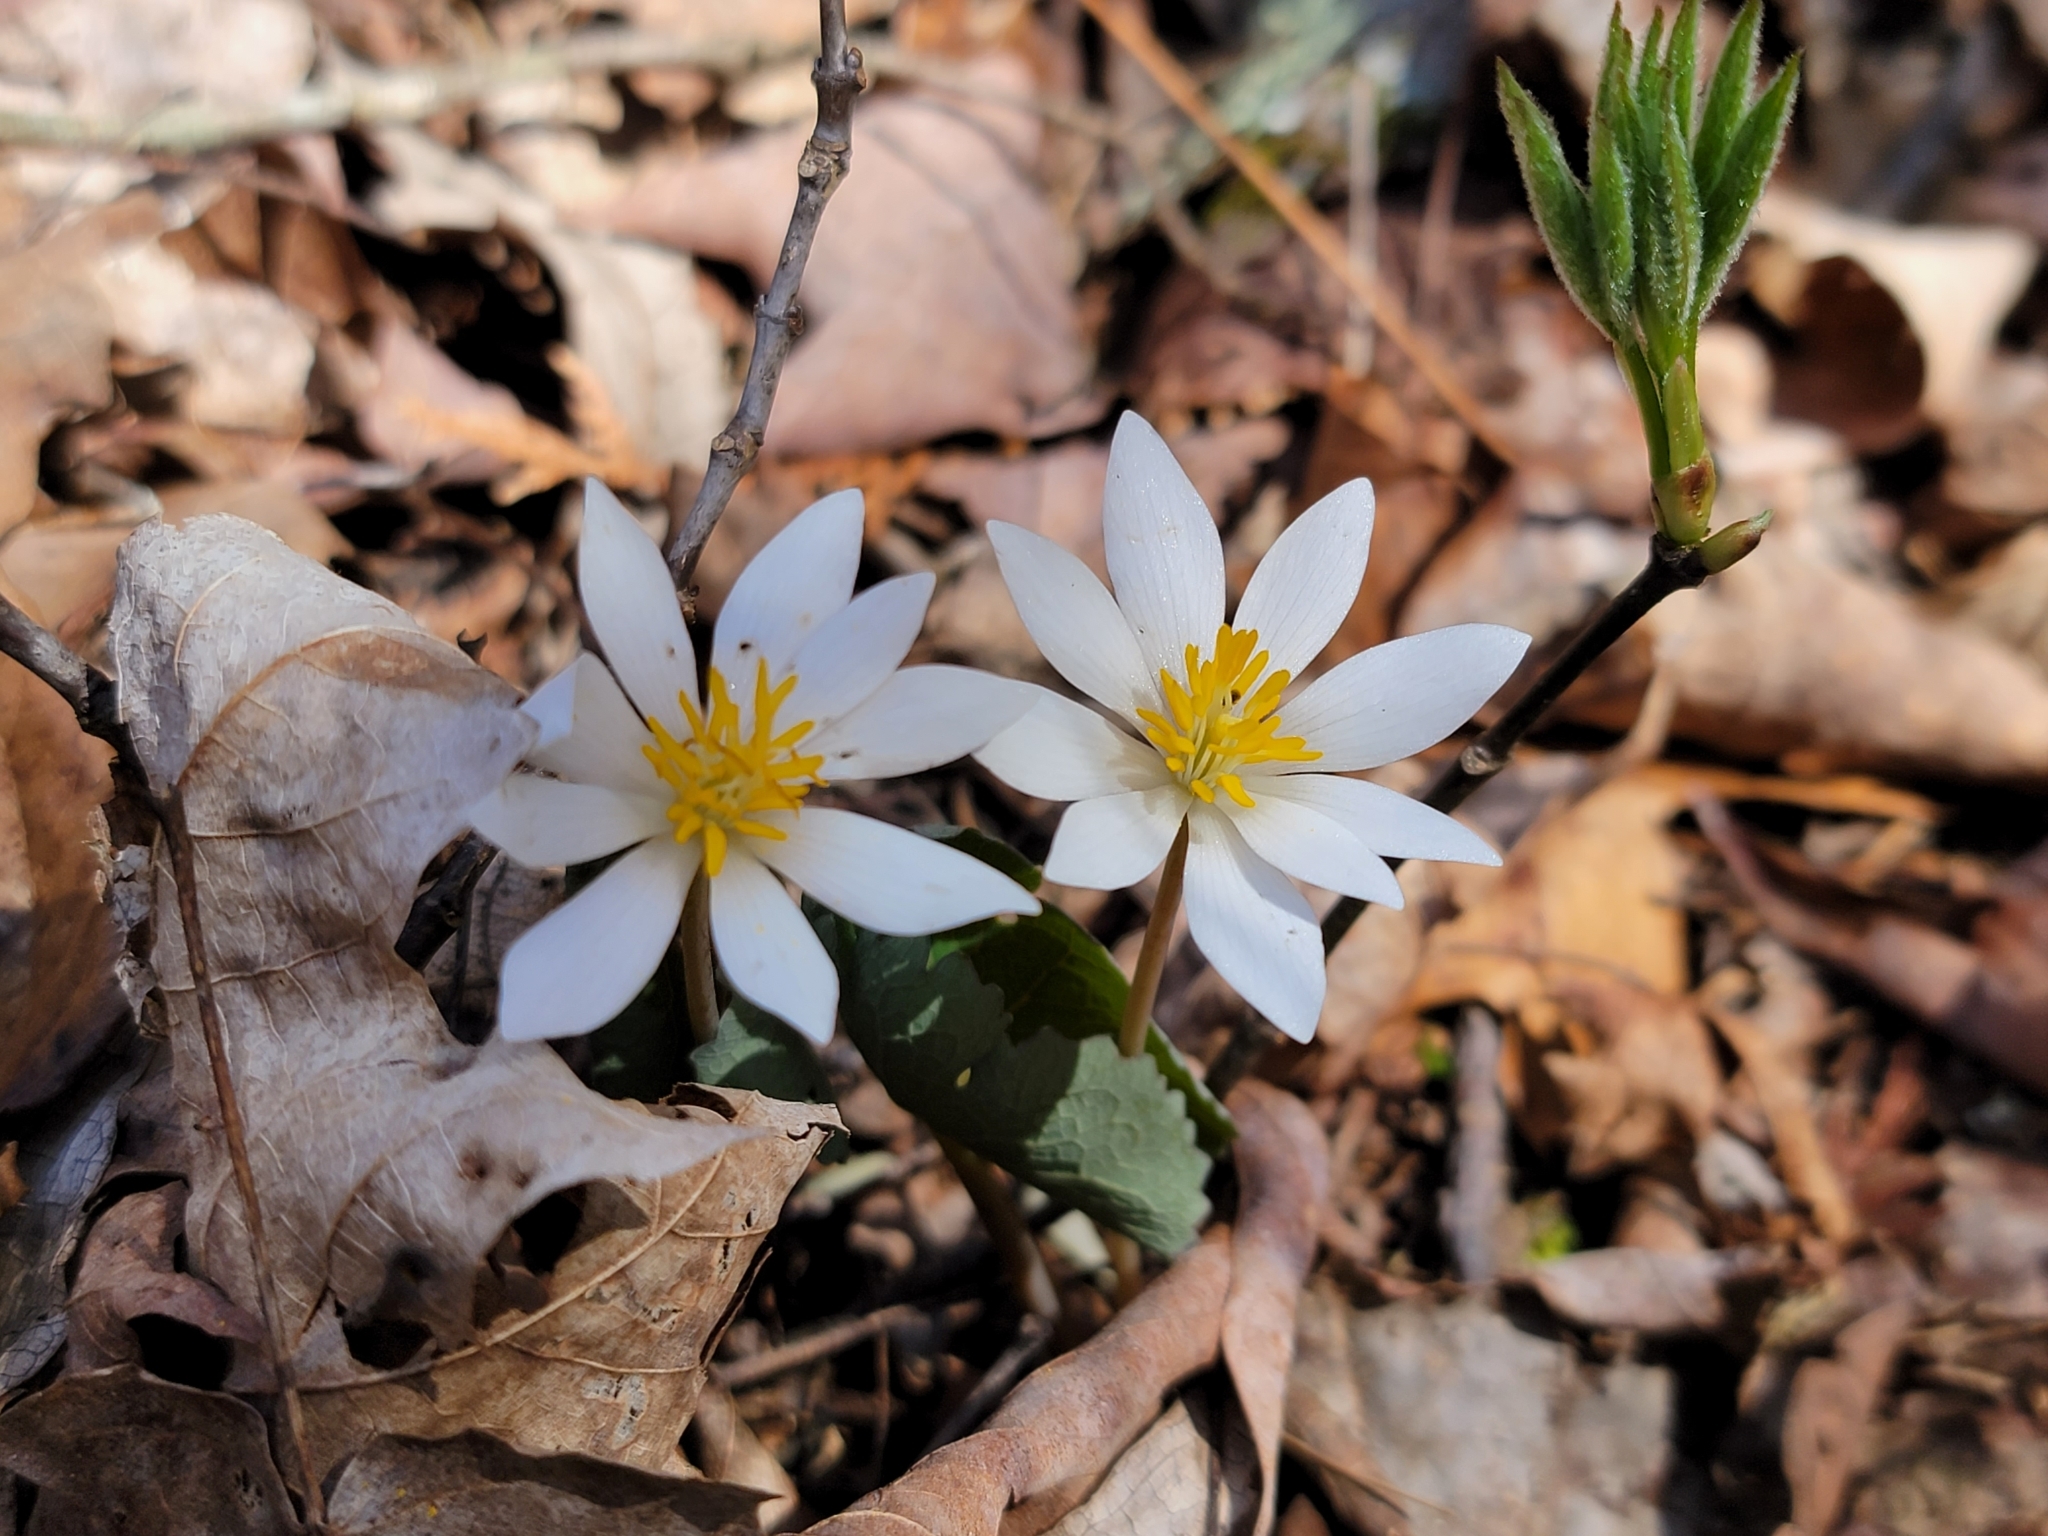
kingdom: Plantae
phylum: Tracheophyta
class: Magnoliopsida
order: Ranunculales
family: Papaveraceae
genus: Sanguinaria
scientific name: Sanguinaria canadensis
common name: Bloodroot
